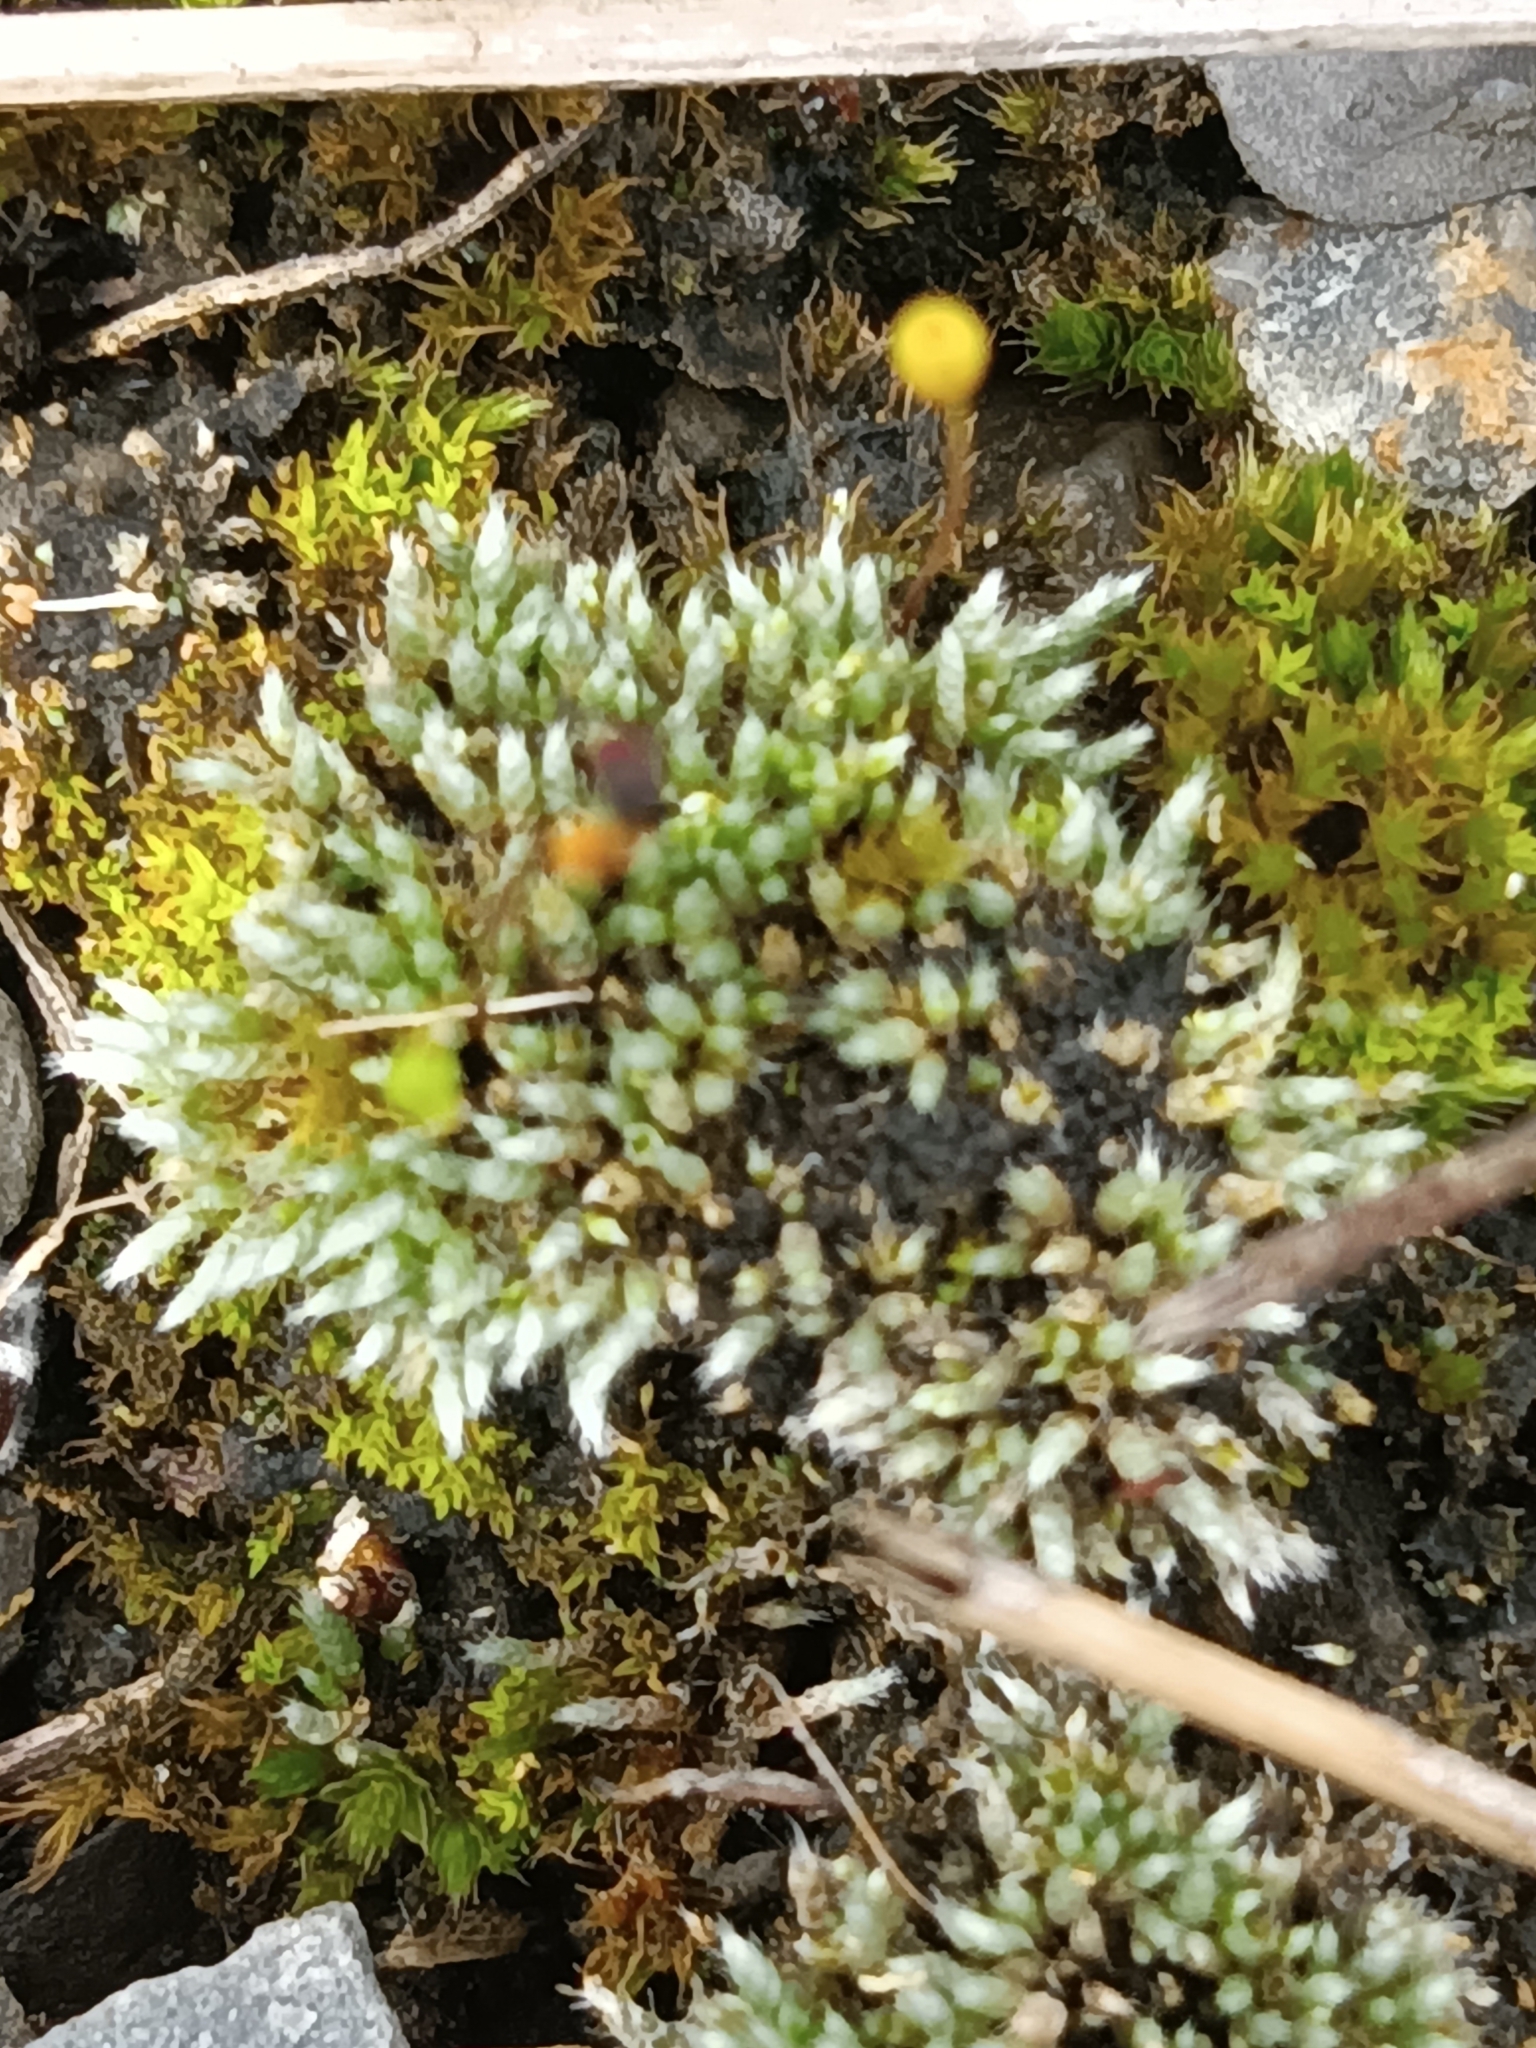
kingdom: Plantae
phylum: Bryophyta
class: Bryopsida
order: Bryales
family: Bryaceae
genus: Bryum
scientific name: Bryum argenteum
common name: Silver-moss
